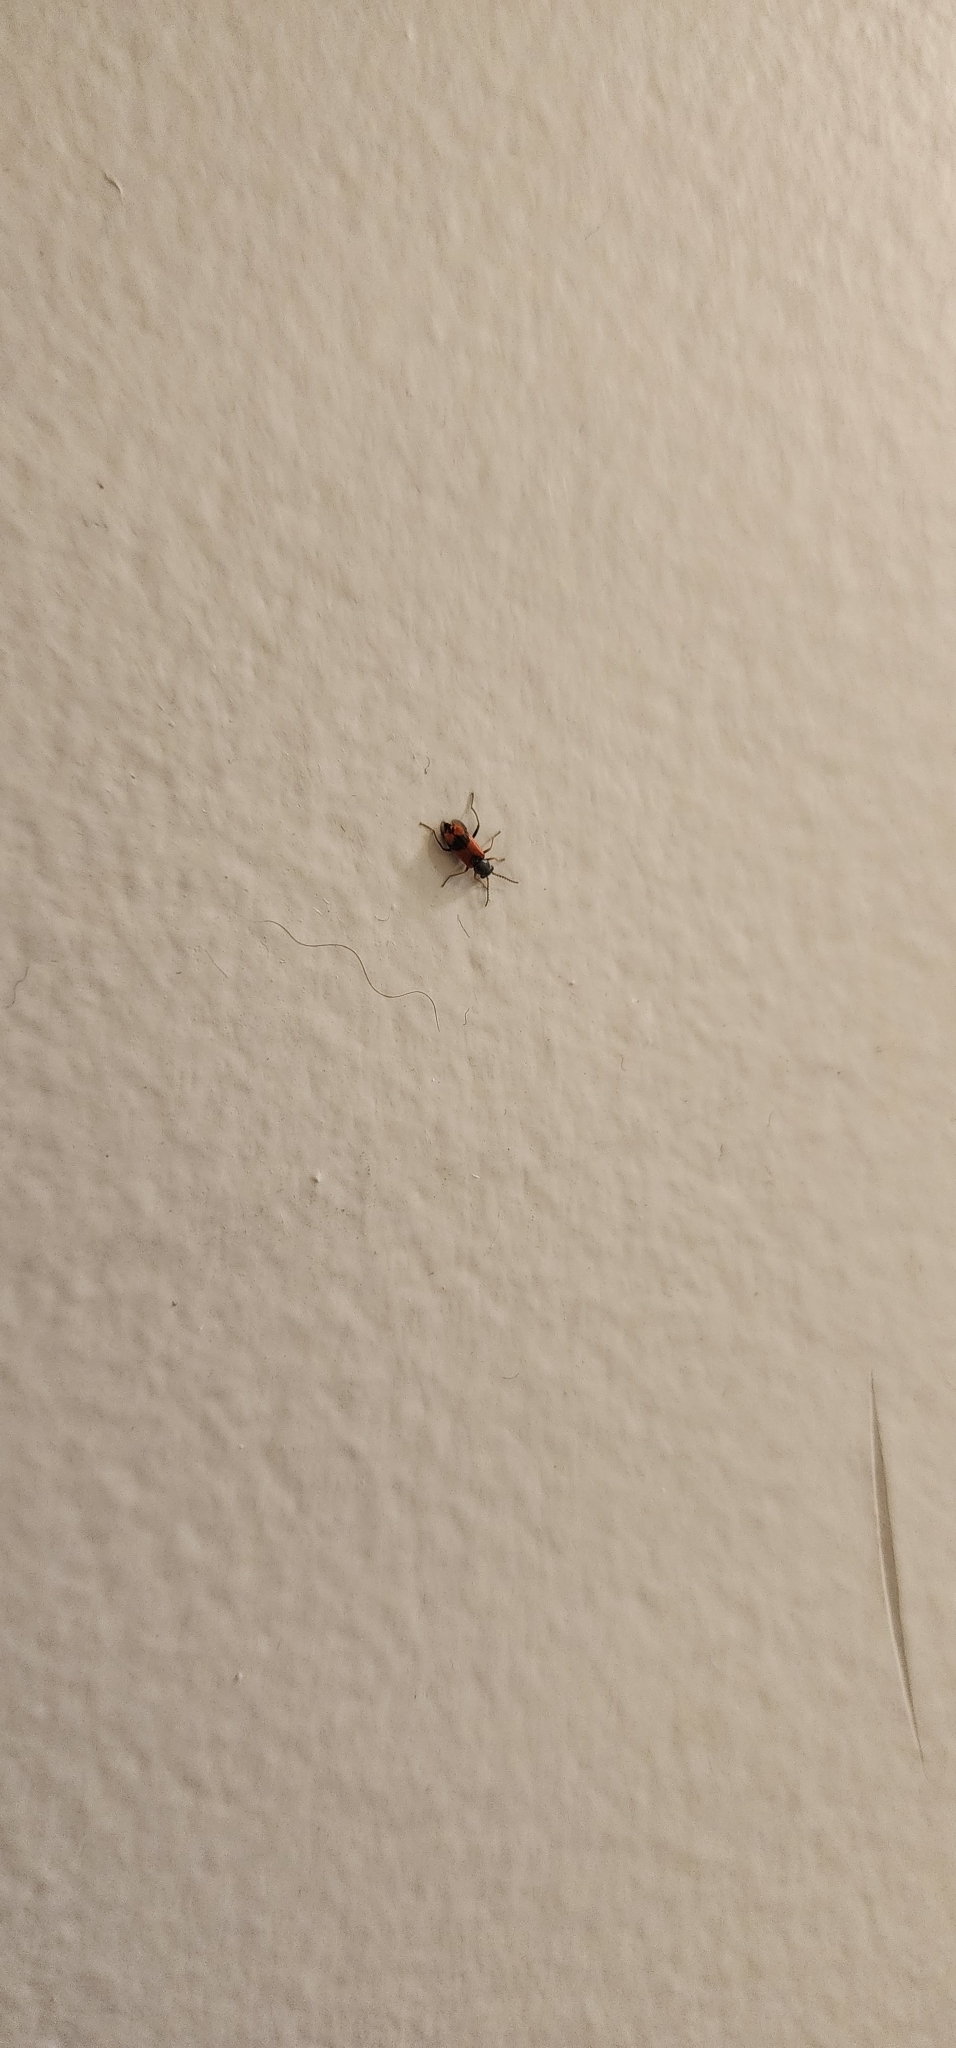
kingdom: Animalia
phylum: Arthropoda
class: Insecta
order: Coleoptera
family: Melyridae
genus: Anthocomus
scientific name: Anthocomus equestris
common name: Black-banded soft-winged flower beetle
